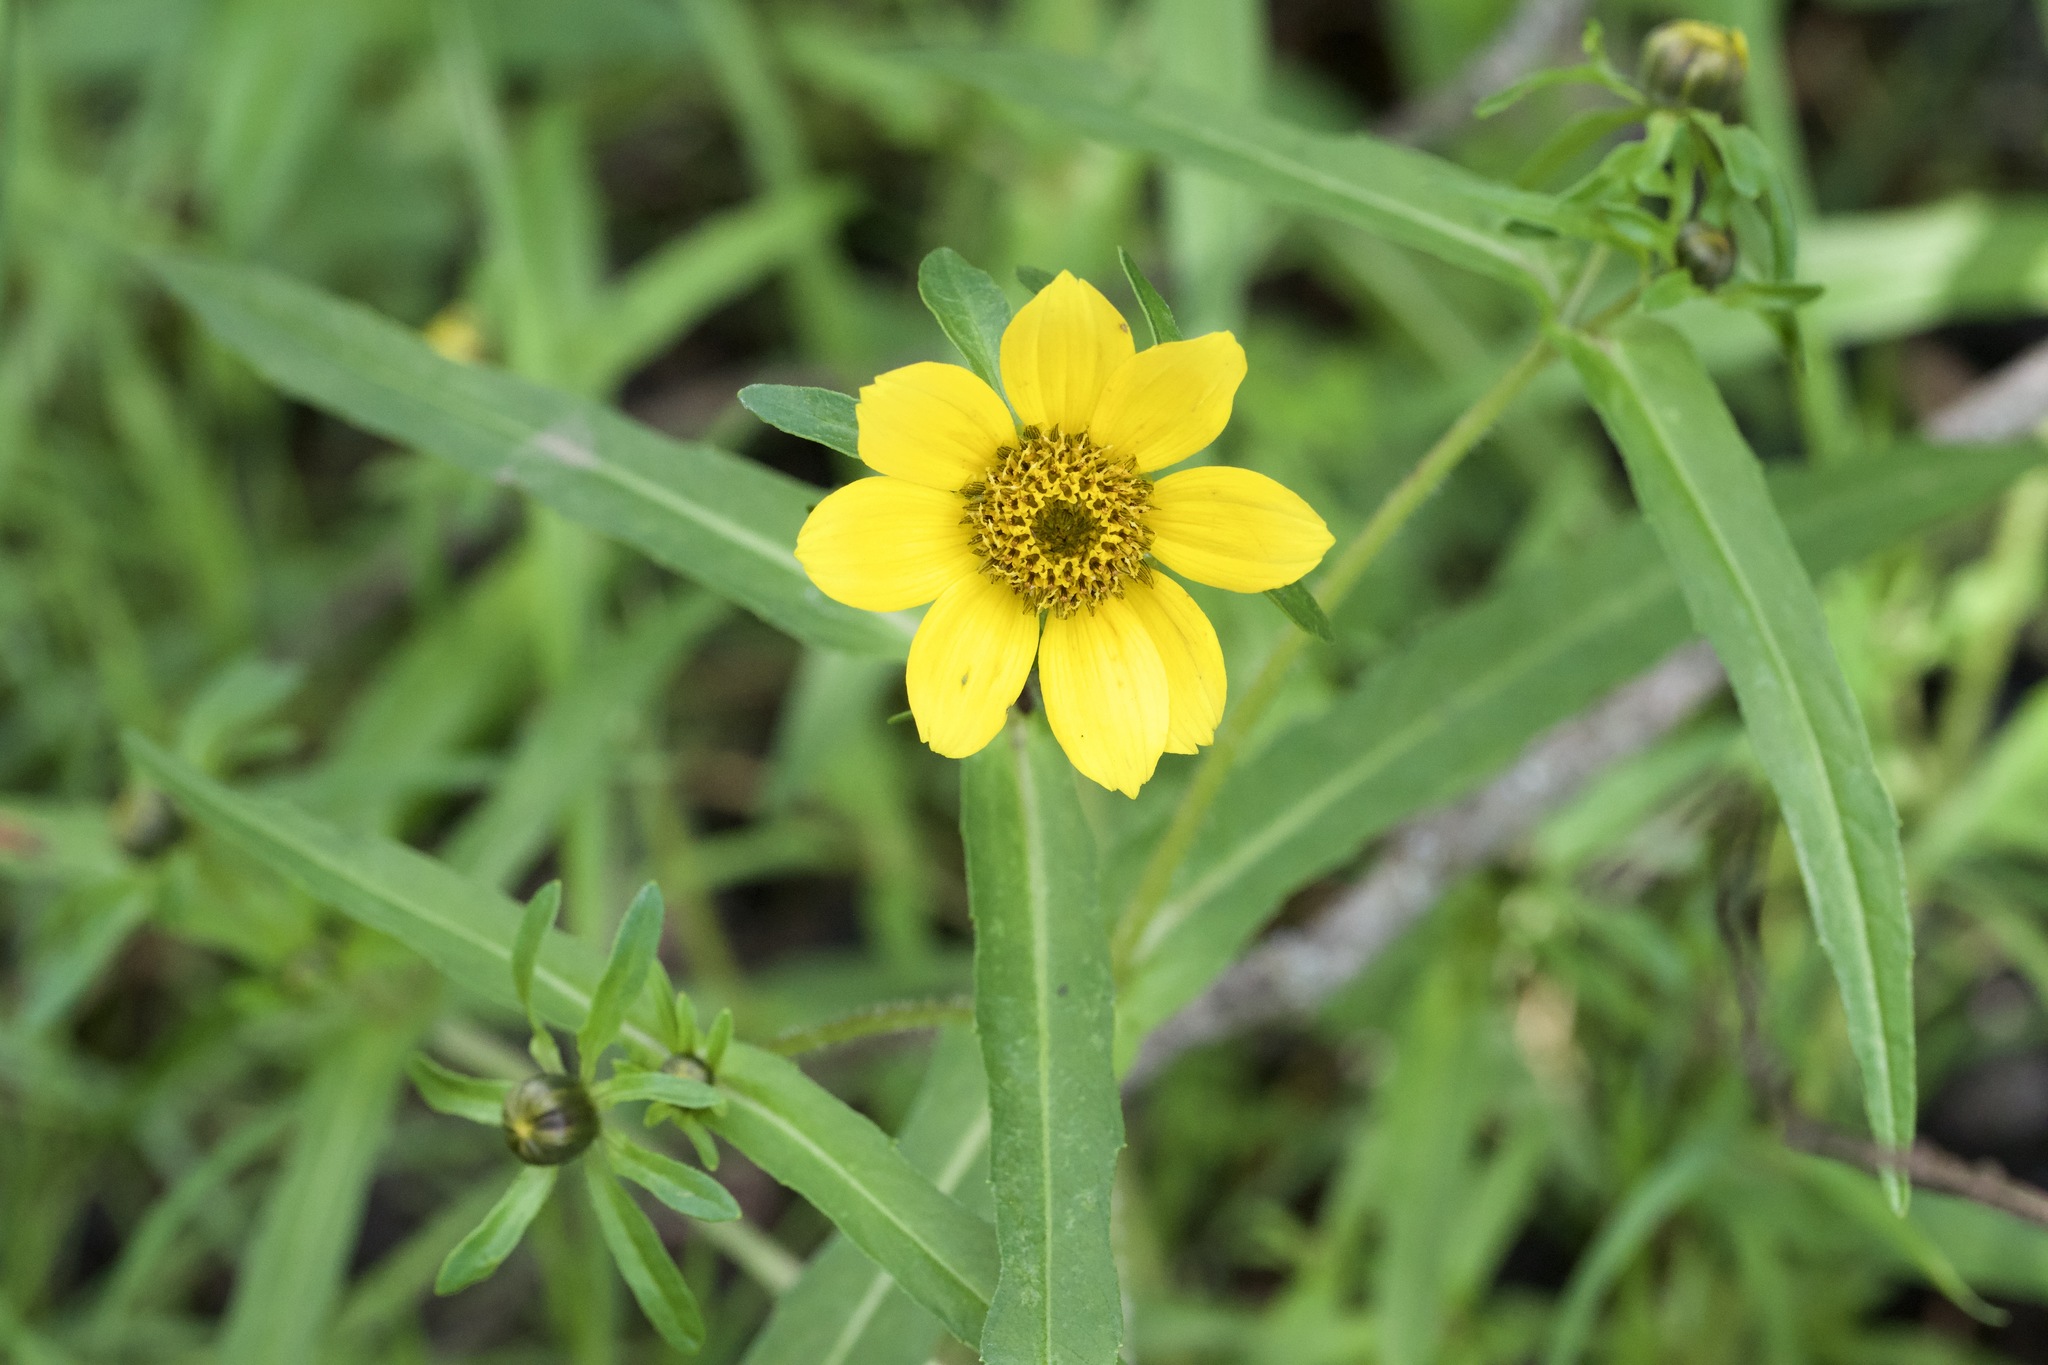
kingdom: Plantae
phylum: Tracheophyta
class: Magnoliopsida
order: Asterales
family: Asteraceae
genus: Bidens
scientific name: Bidens cernua
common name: Nodding bur-marigold
